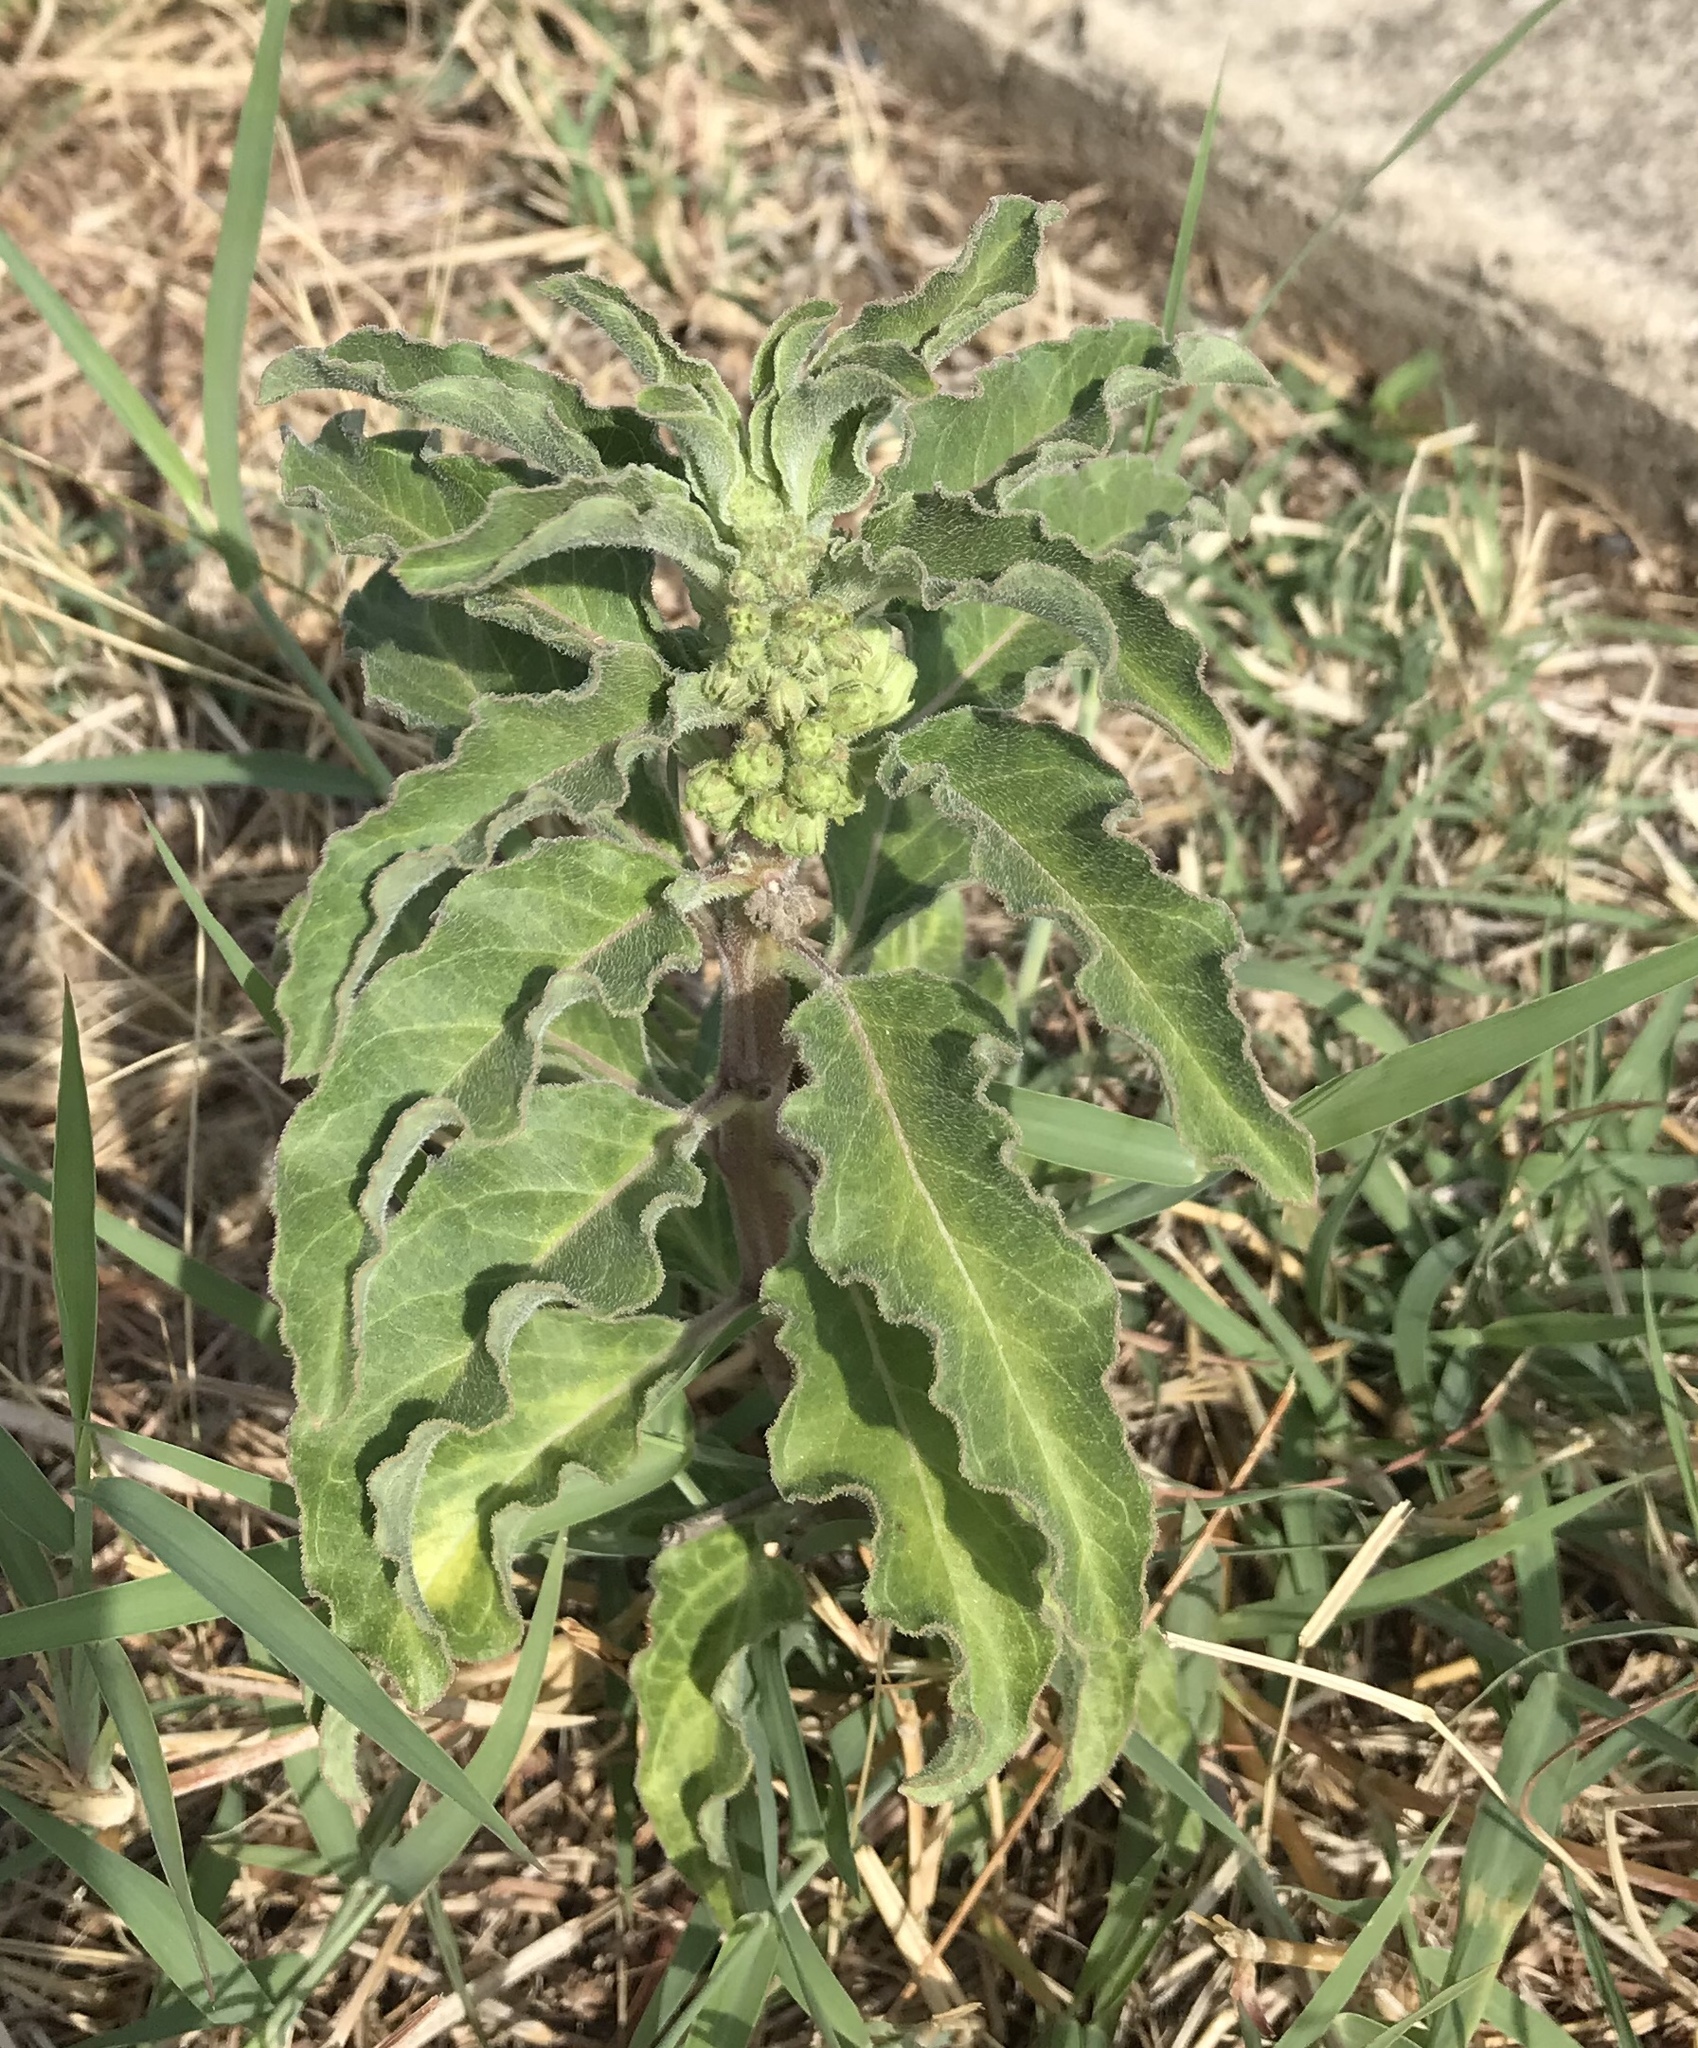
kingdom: Plantae
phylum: Tracheophyta
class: Magnoliopsida
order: Gentianales
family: Apocynaceae
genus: Asclepias
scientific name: Asclepias oenotheroides
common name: Zizotes milkweed
